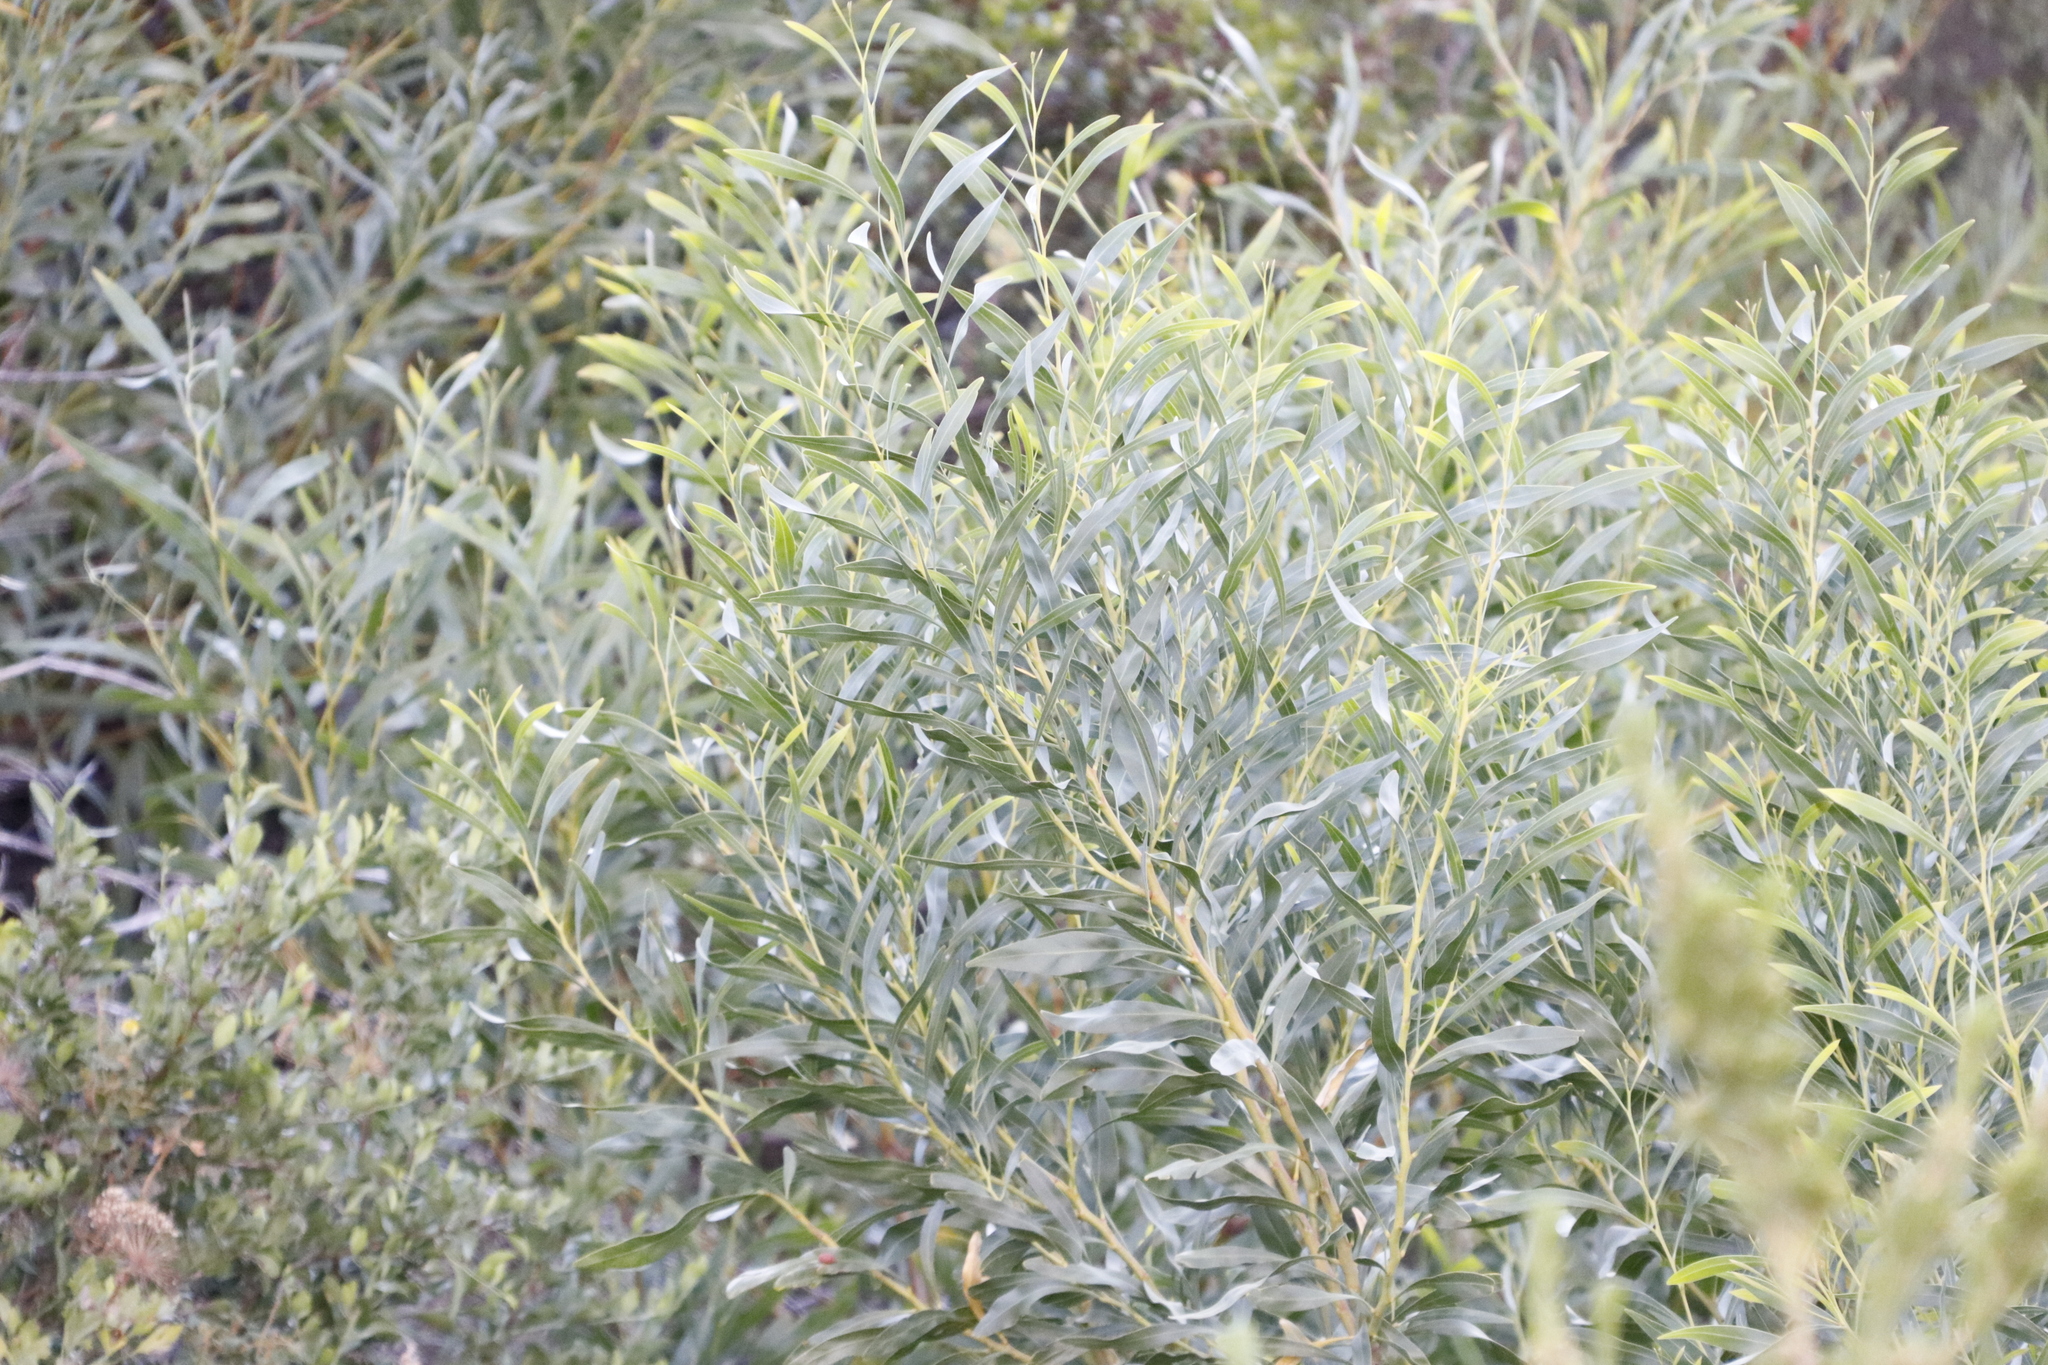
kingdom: Plantae
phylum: Tracheophyta
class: Magnoliopsida
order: Fabales
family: Fabaceae
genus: Acacia
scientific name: Acacia saligna
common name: Orange wattle
